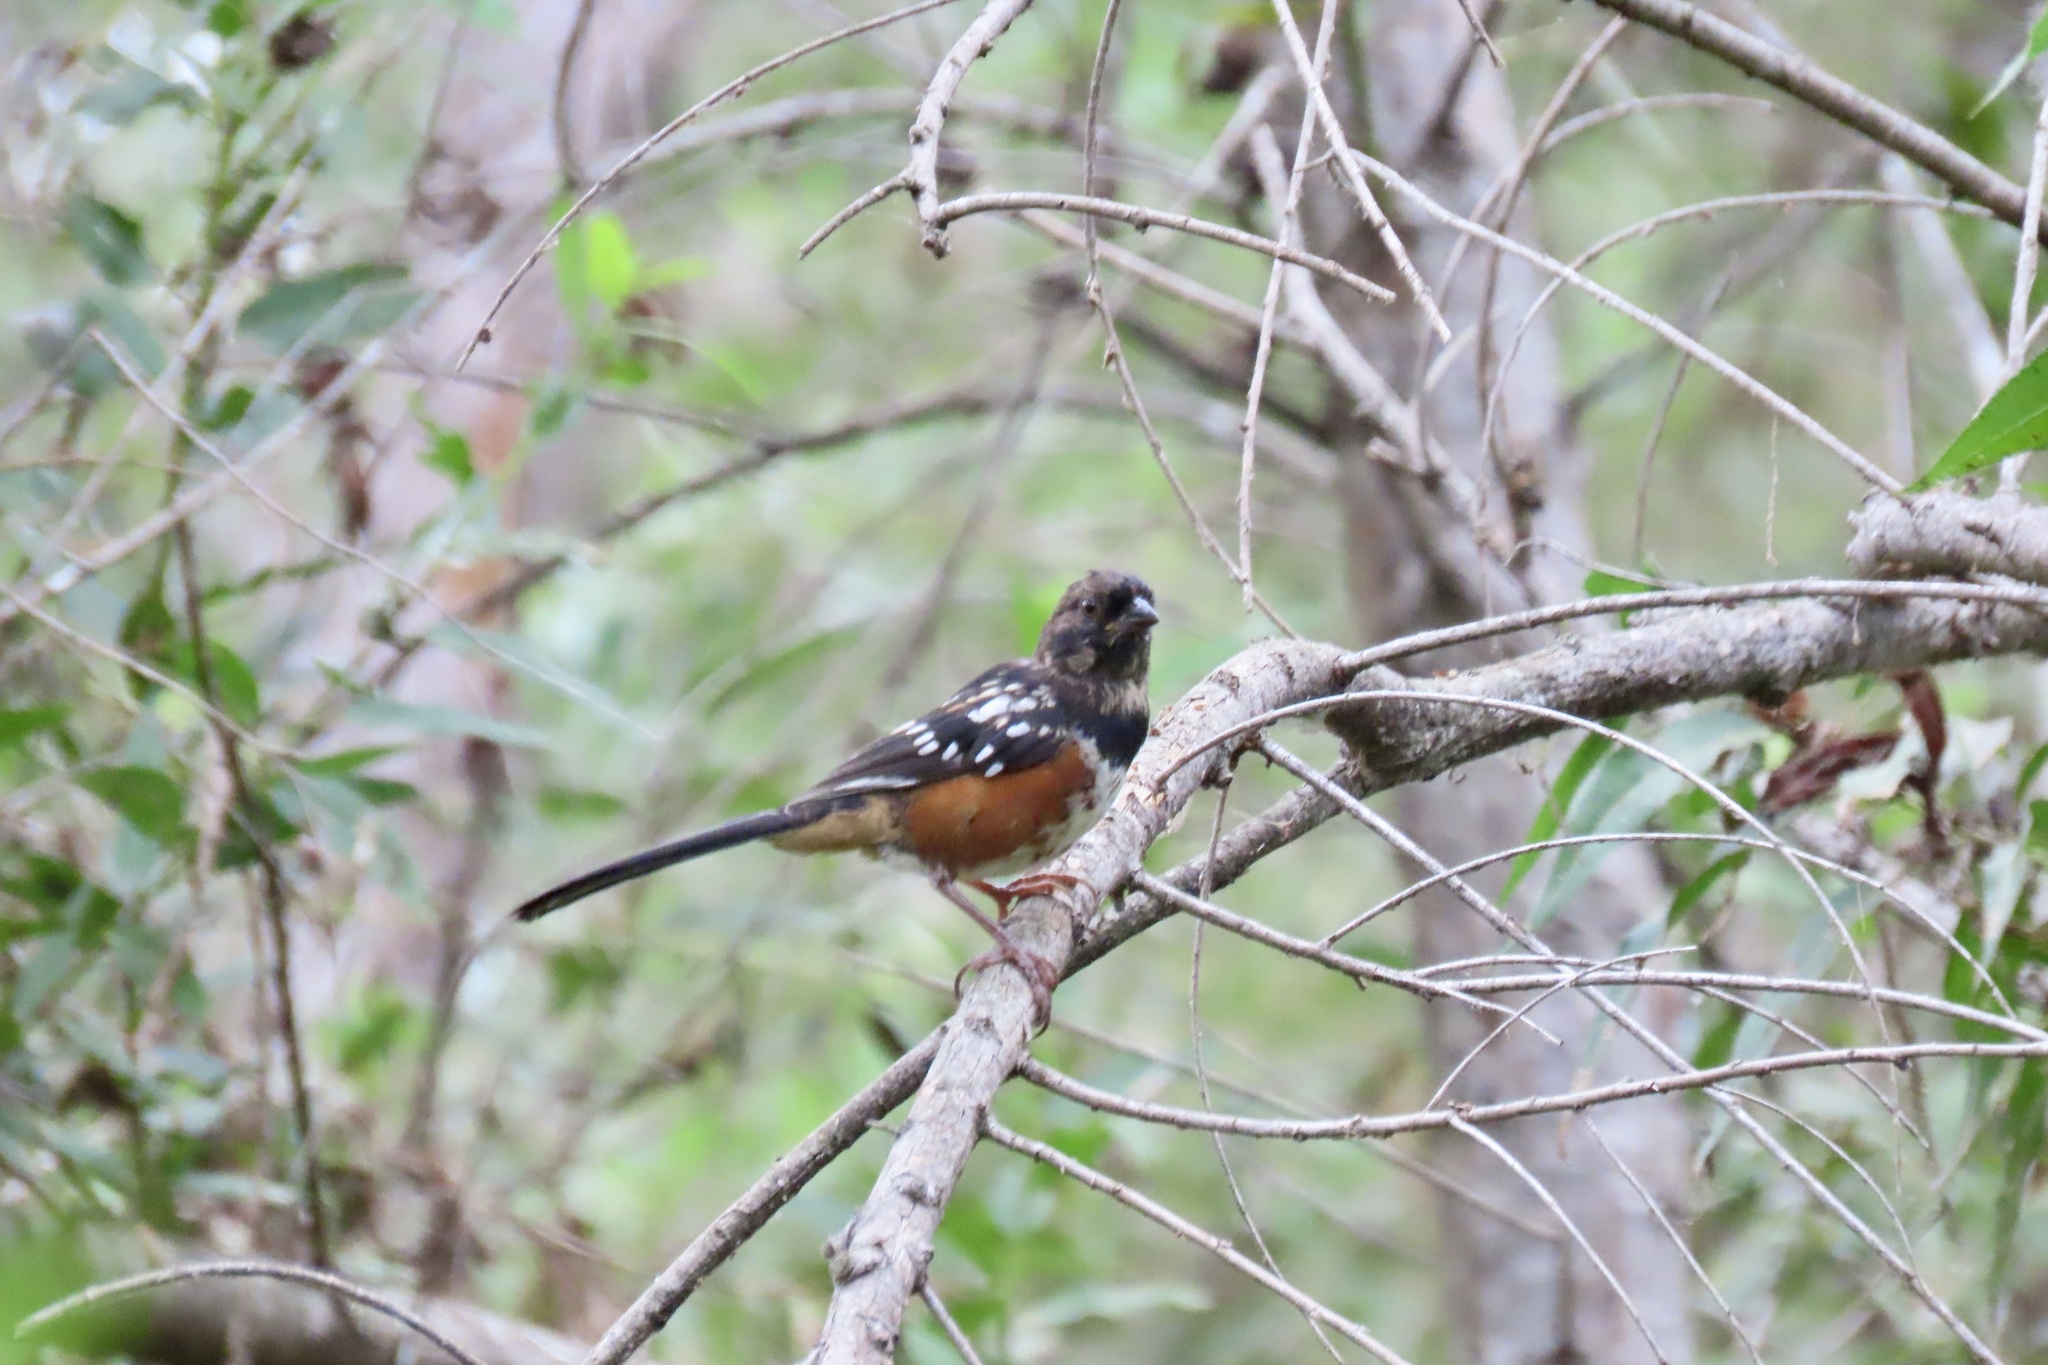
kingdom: Animalia
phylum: Chordata
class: Aves
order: Passeriformes
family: Passerellidae
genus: Pipilo
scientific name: Pipilo maculatus
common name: Spotted towhee
